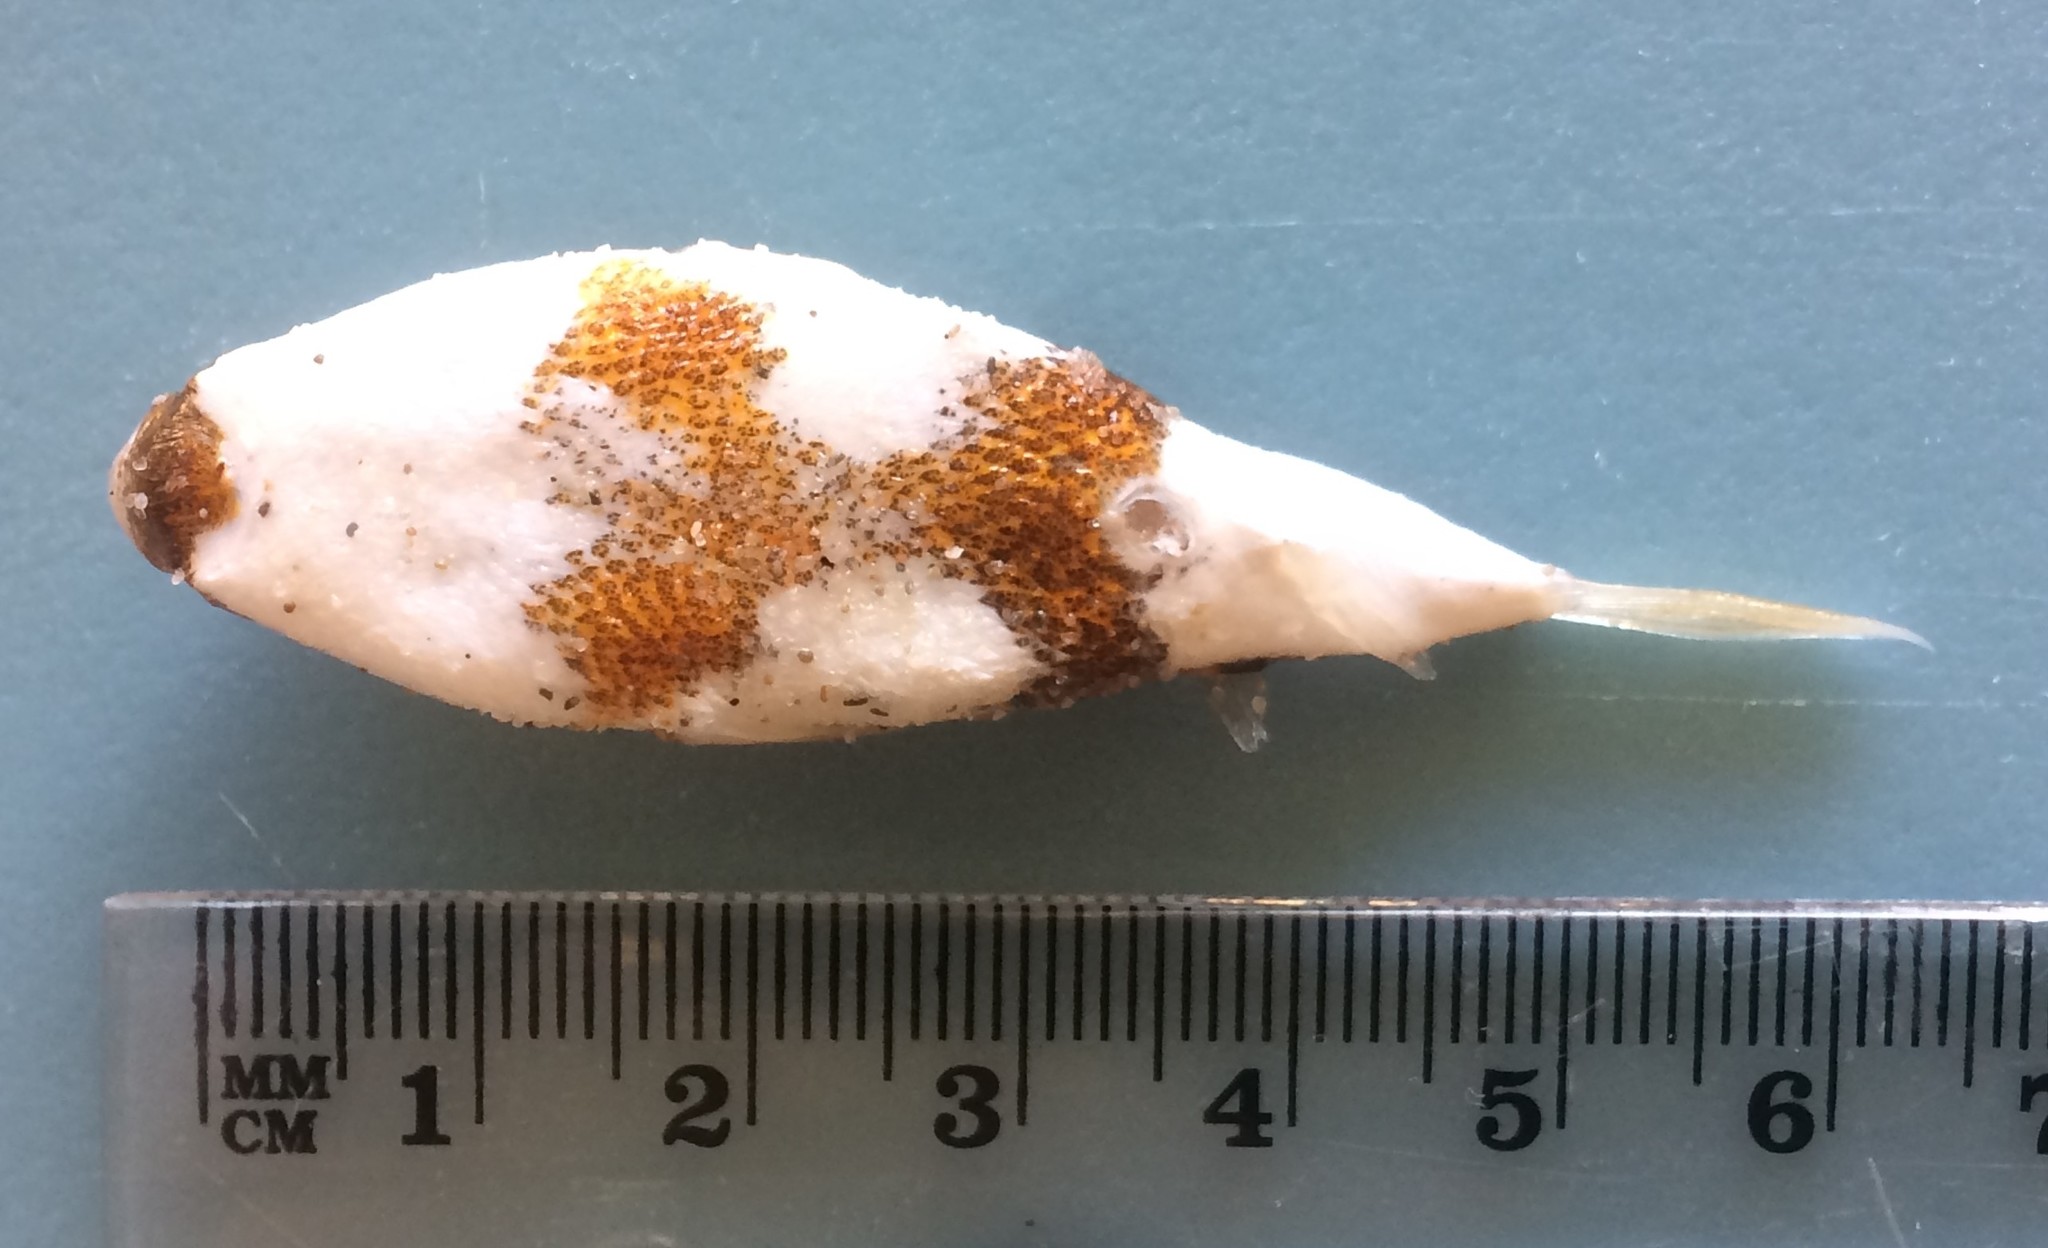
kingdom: Animalia
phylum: Chordata
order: Tetraodontiformes
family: Tetraodontidae
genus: Polyspina
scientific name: Polyspina piosae
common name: Orange-barred pufferfish
